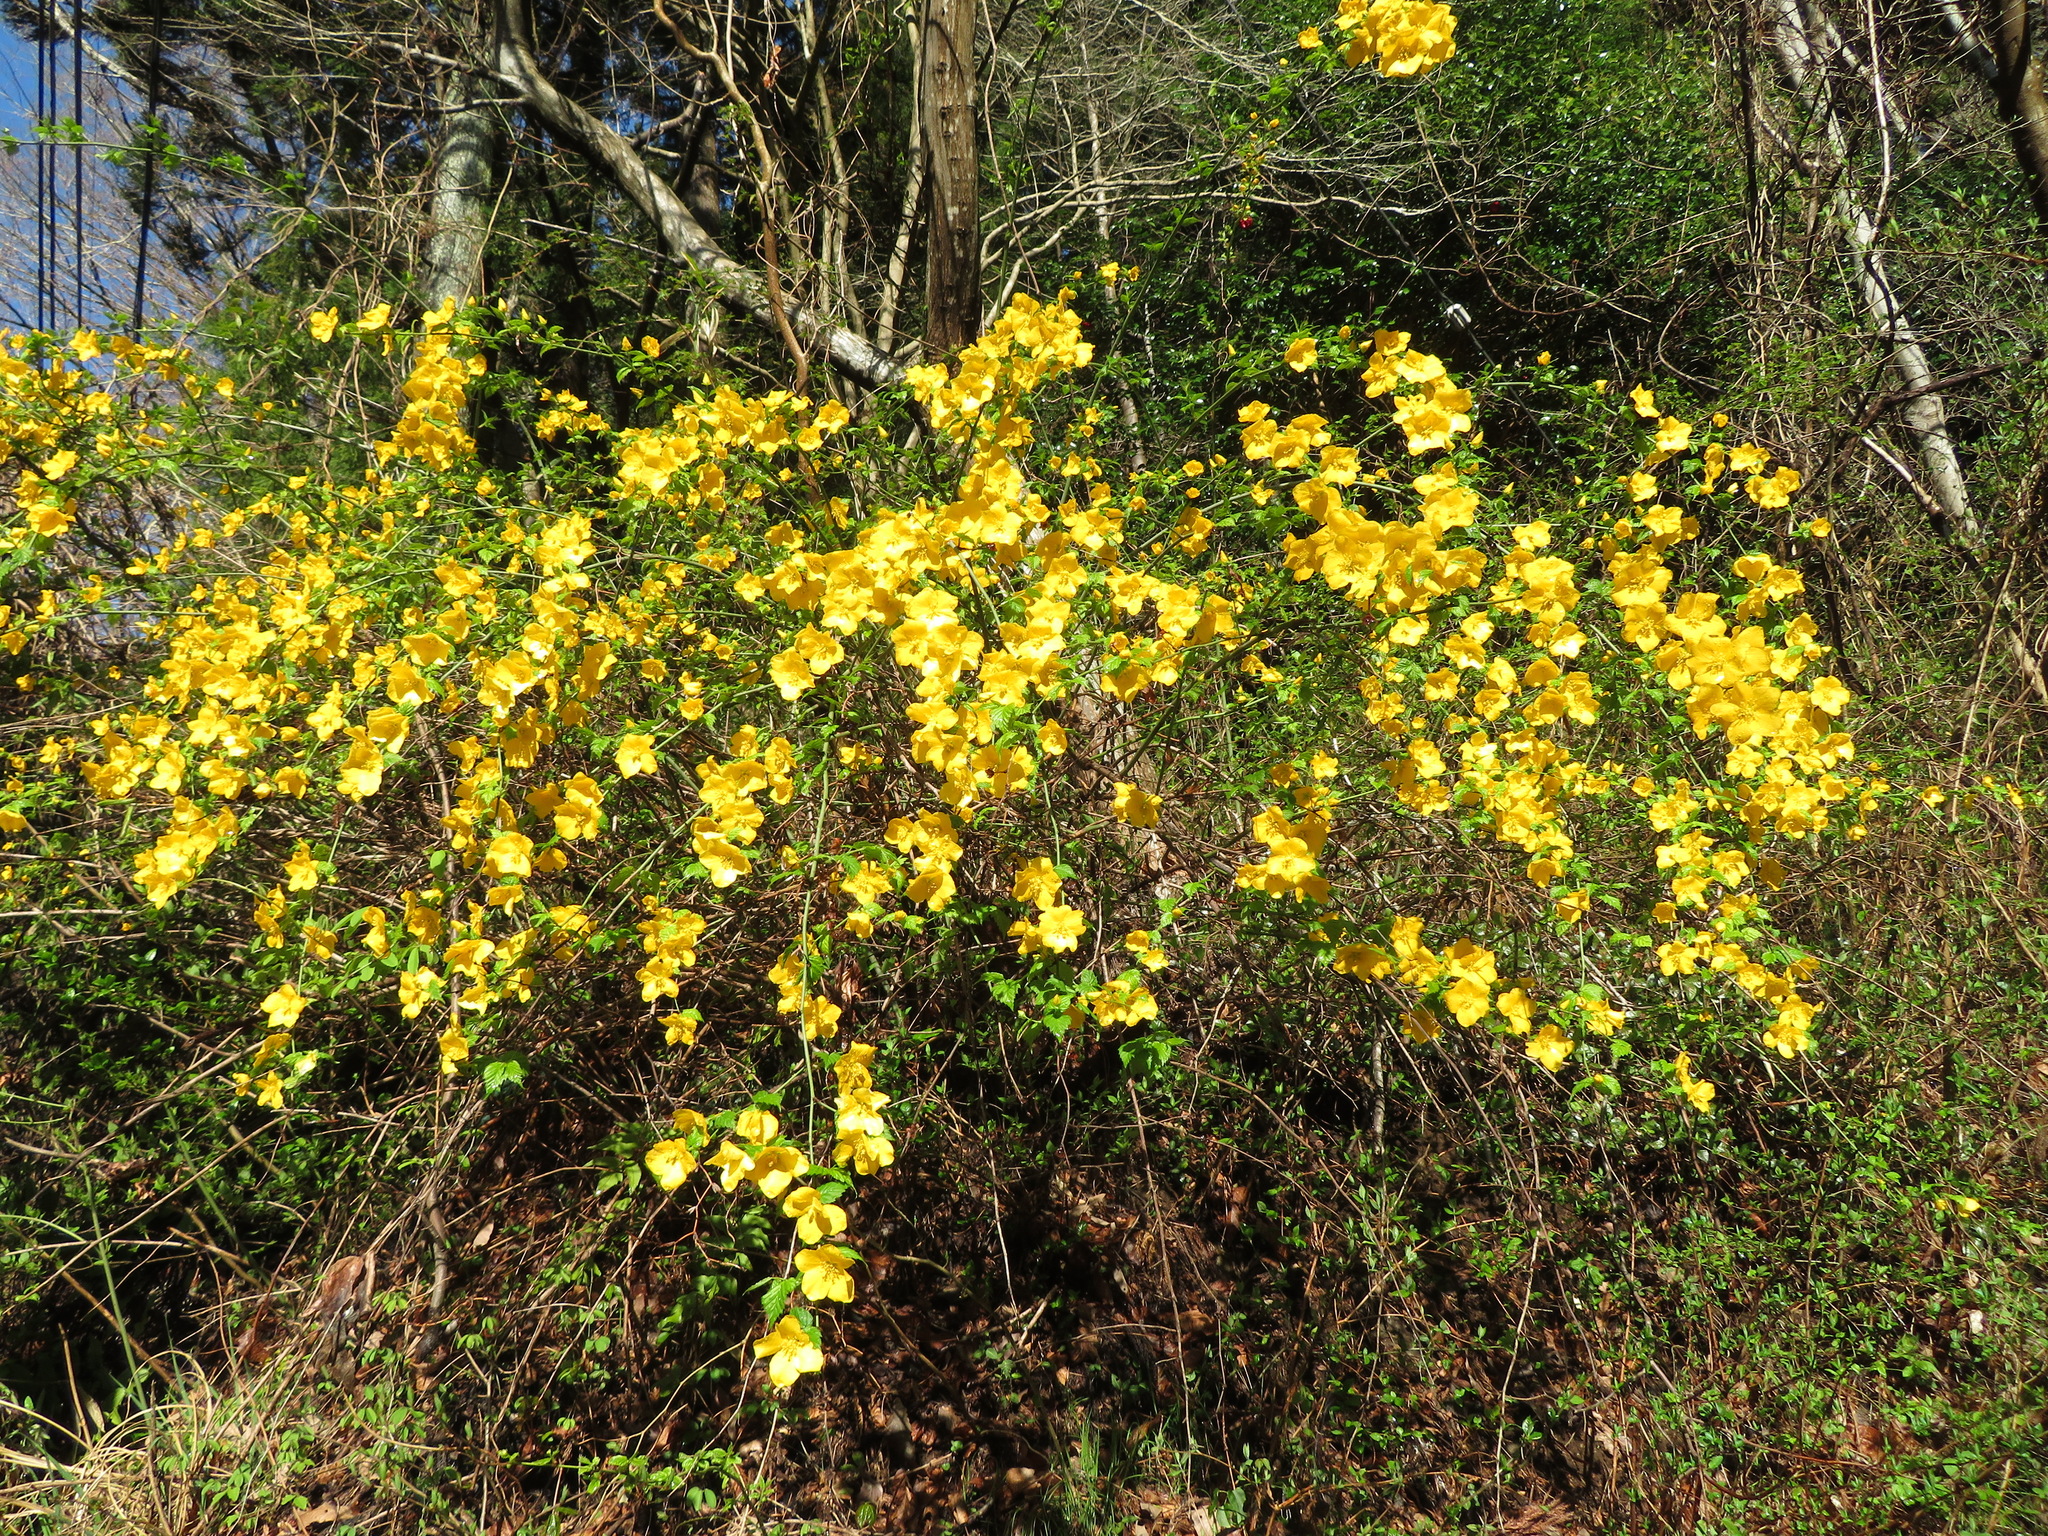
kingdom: Plantae
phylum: Tracheophyta
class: Magnoliopsida
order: Rosales
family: Rosaceae
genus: Kerria
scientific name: Kerria japonica
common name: Japanese kerria
